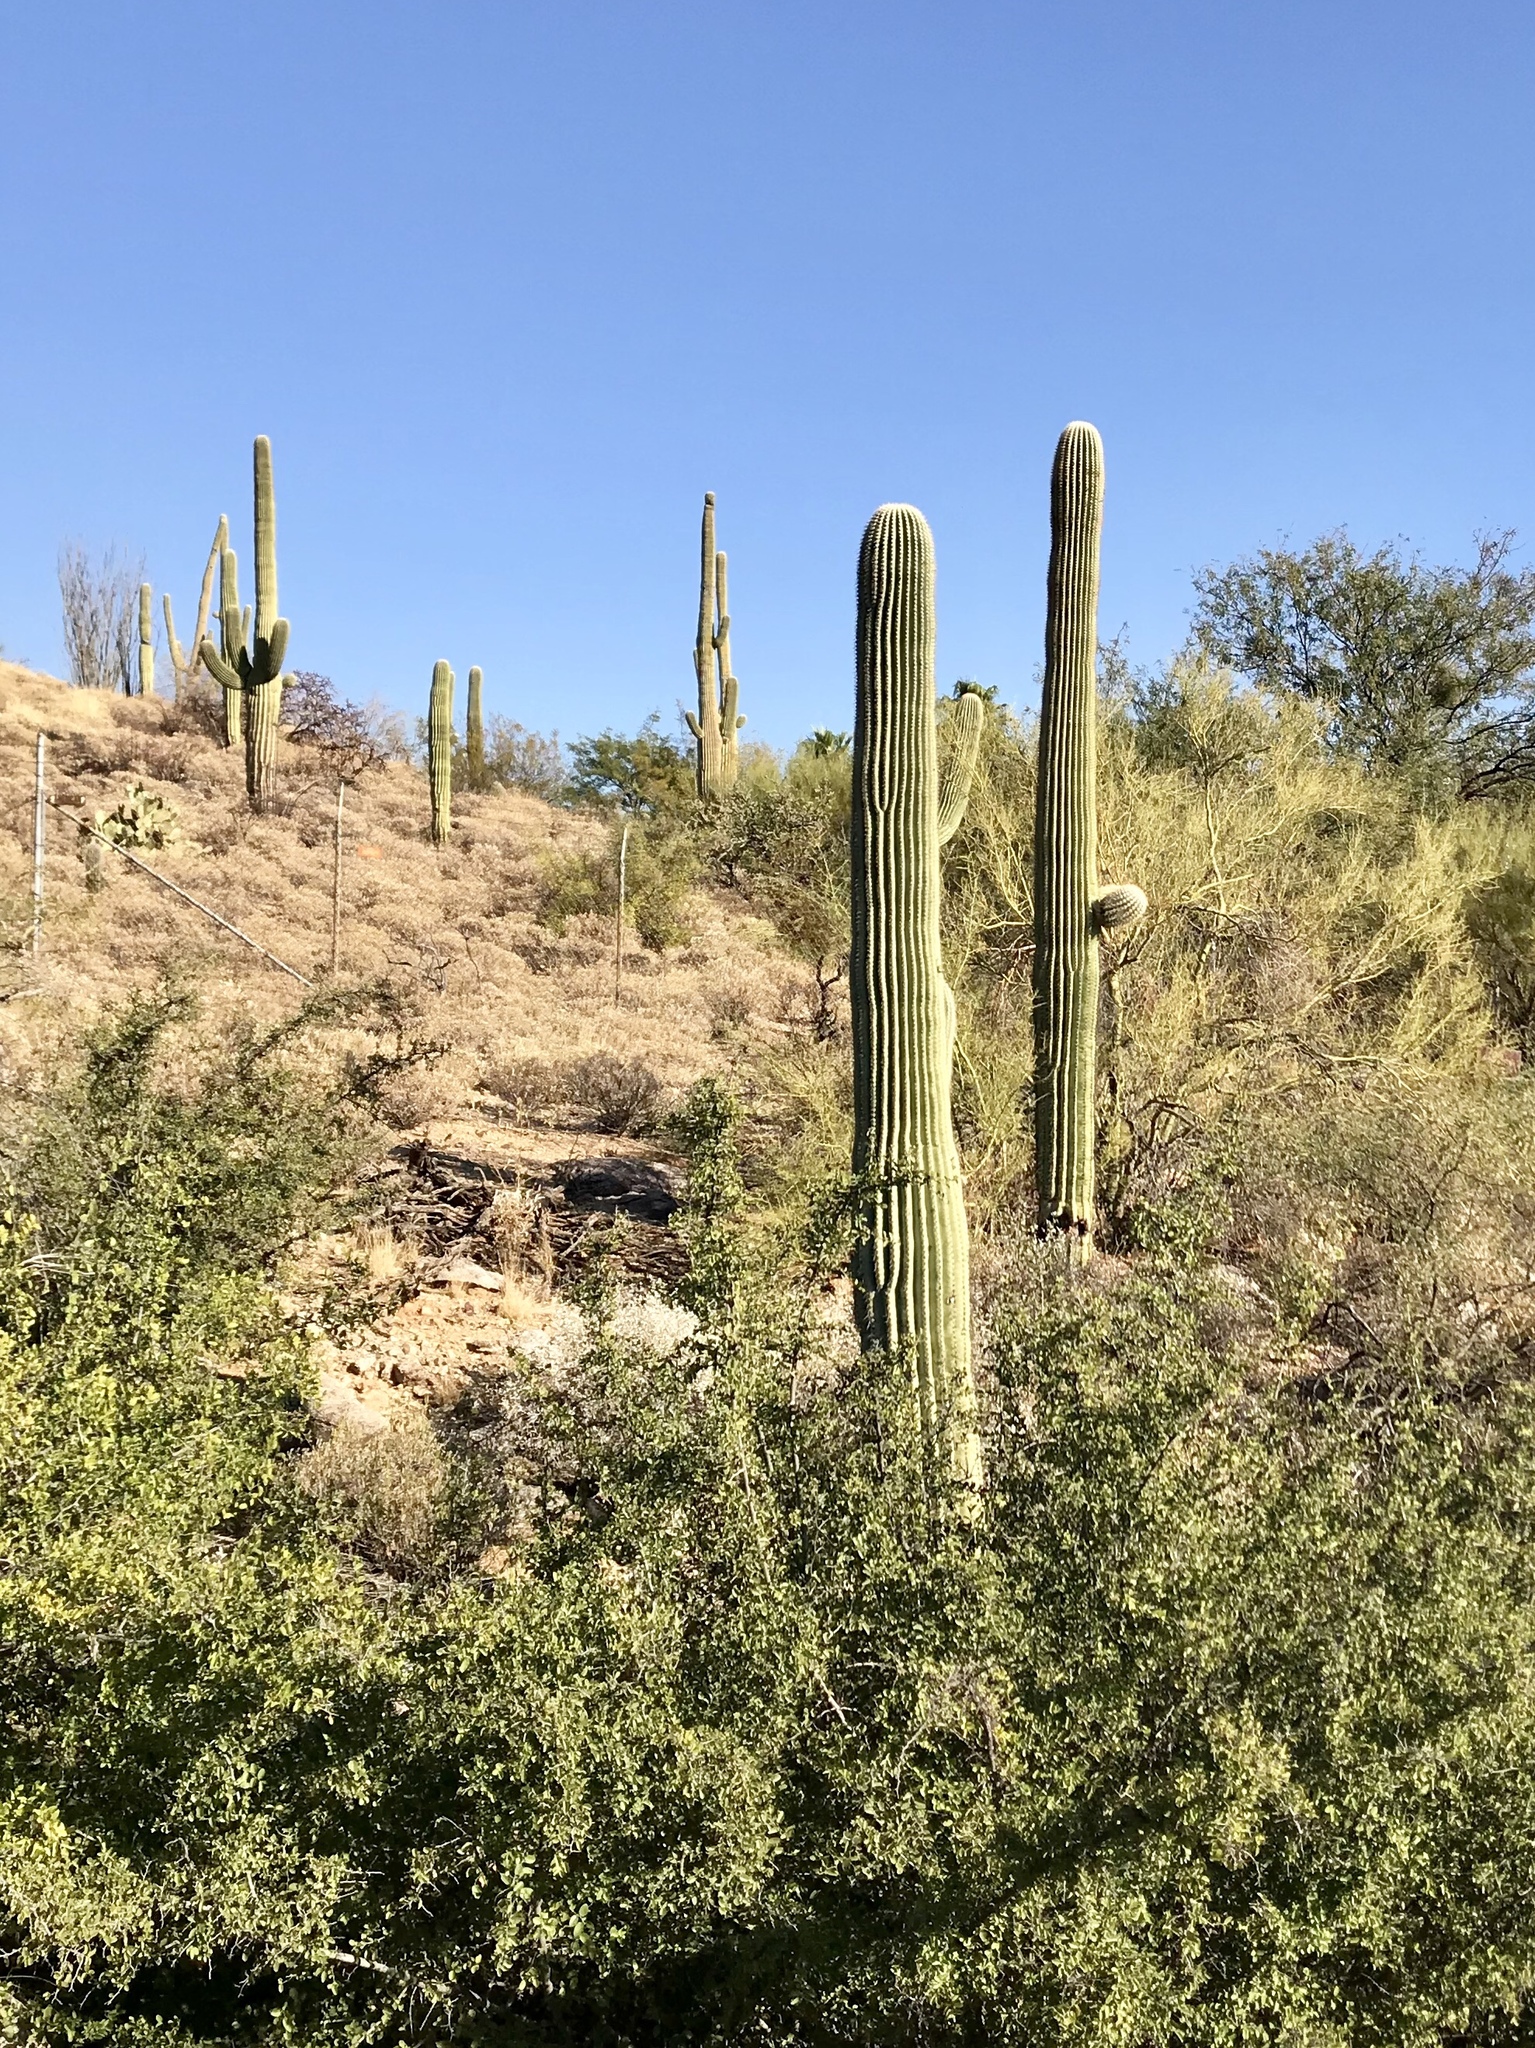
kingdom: Plantae
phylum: Tracheophyta
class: Magnoliopsida
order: Caryophyllales
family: Cactaceae
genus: Carnegiea
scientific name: Carnegiea gigantea
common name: Saguaro
